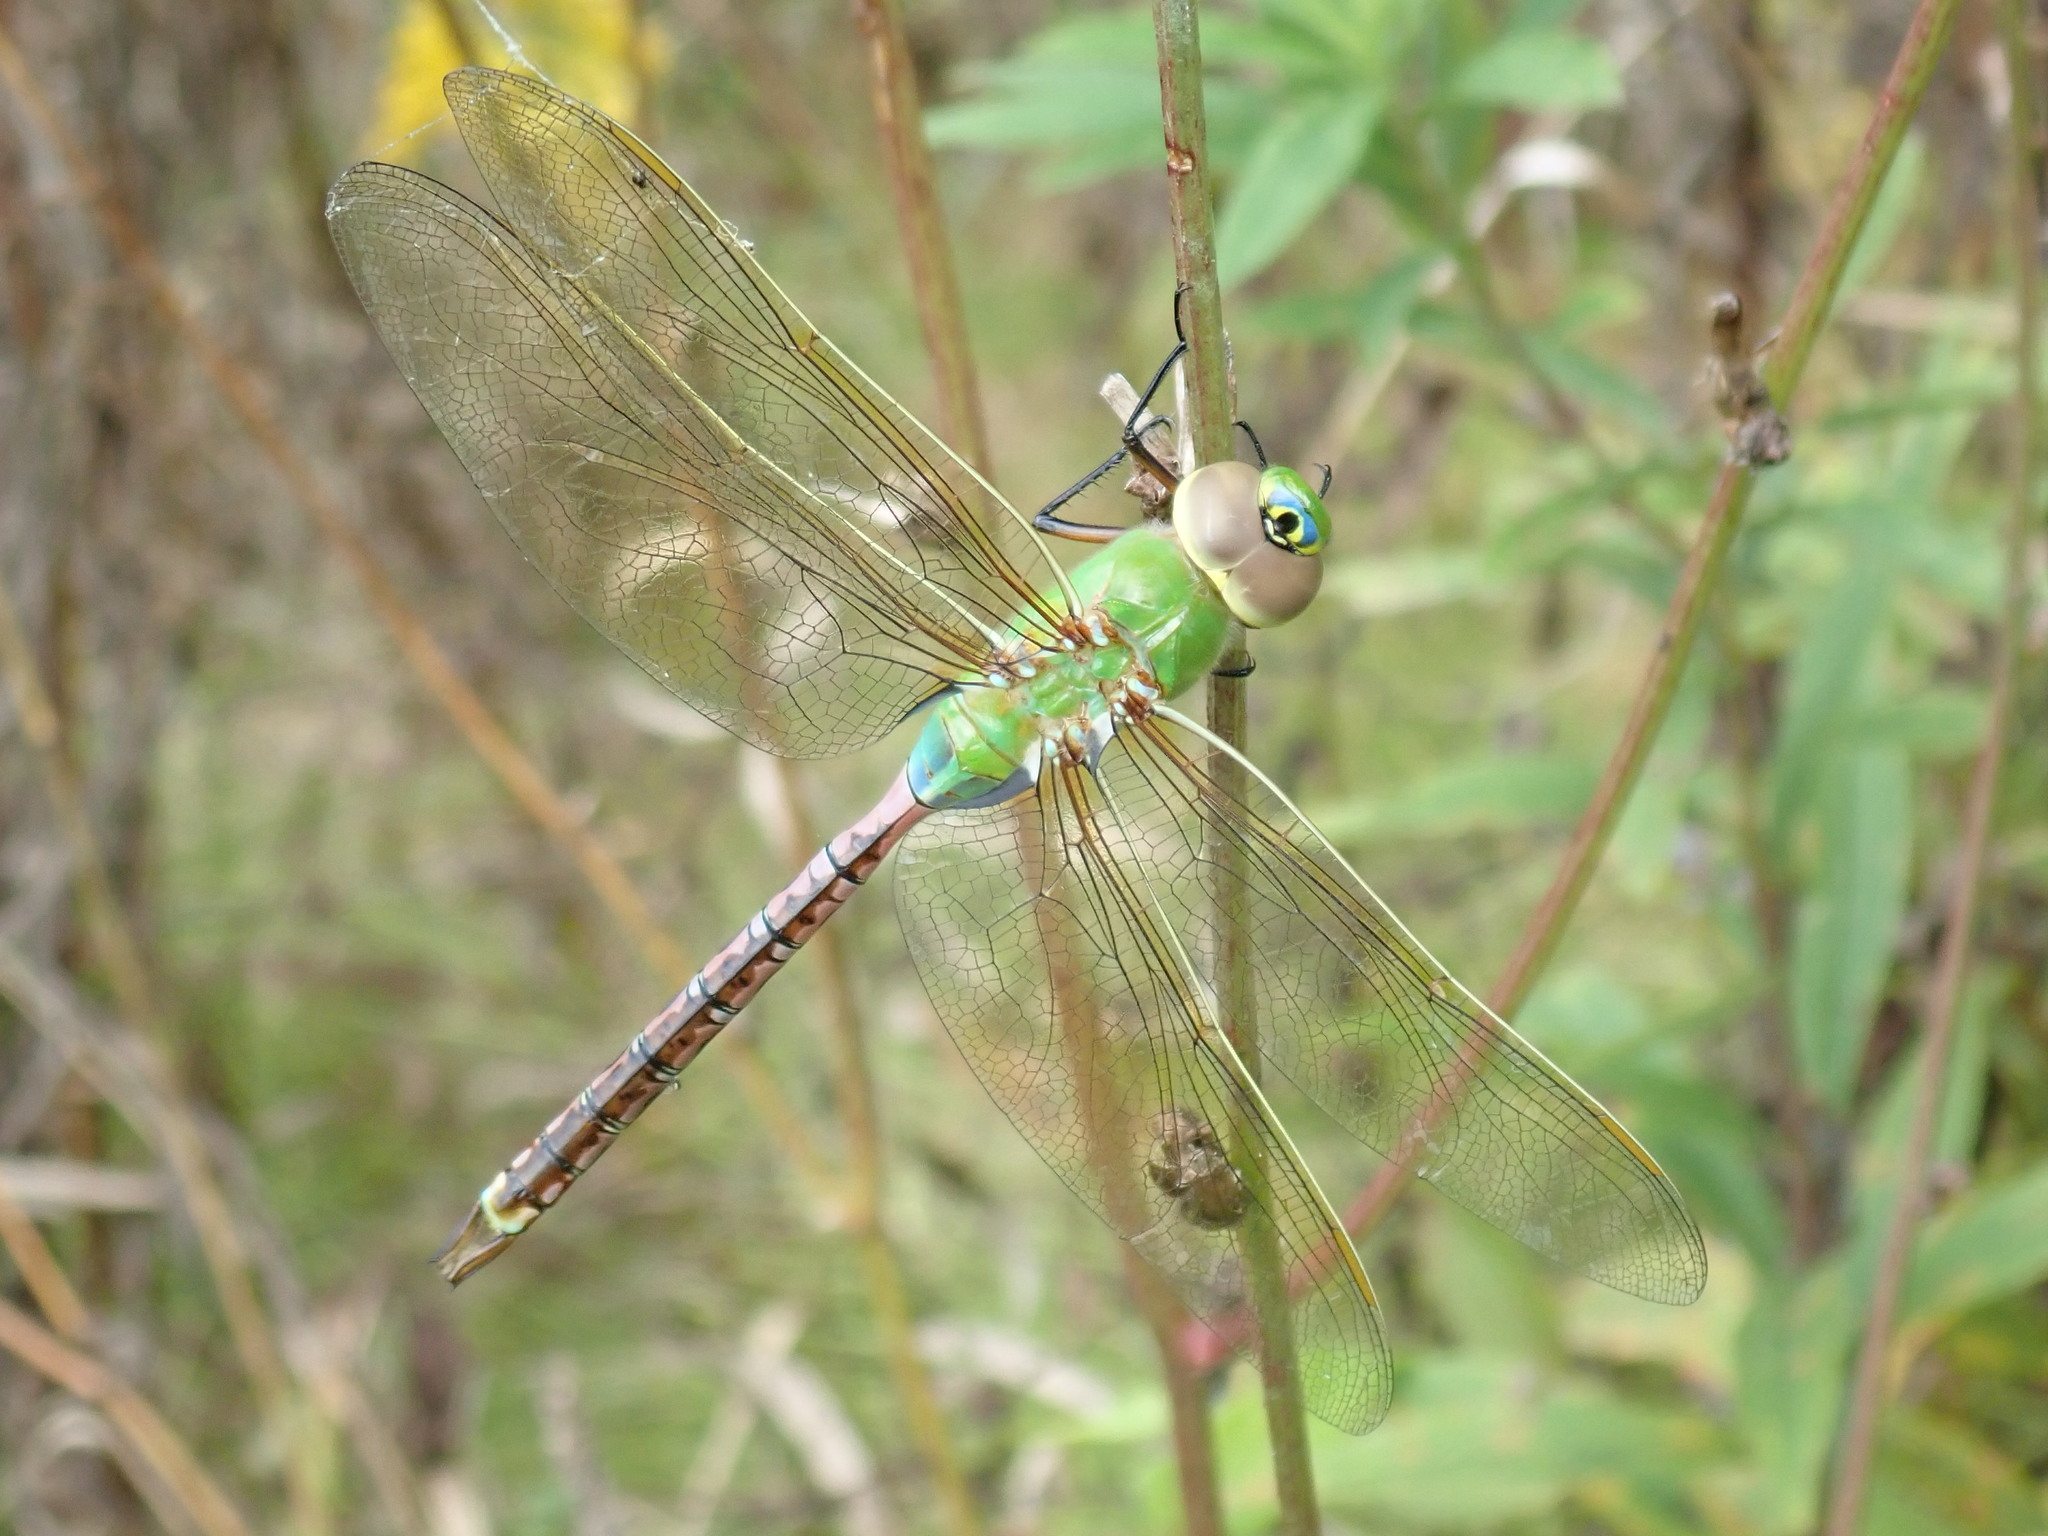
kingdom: Animalia
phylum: Arthropoda
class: Insecta
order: Odonata
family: Aeshnidae
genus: Anax
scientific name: Anax junius
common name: Common green darner
